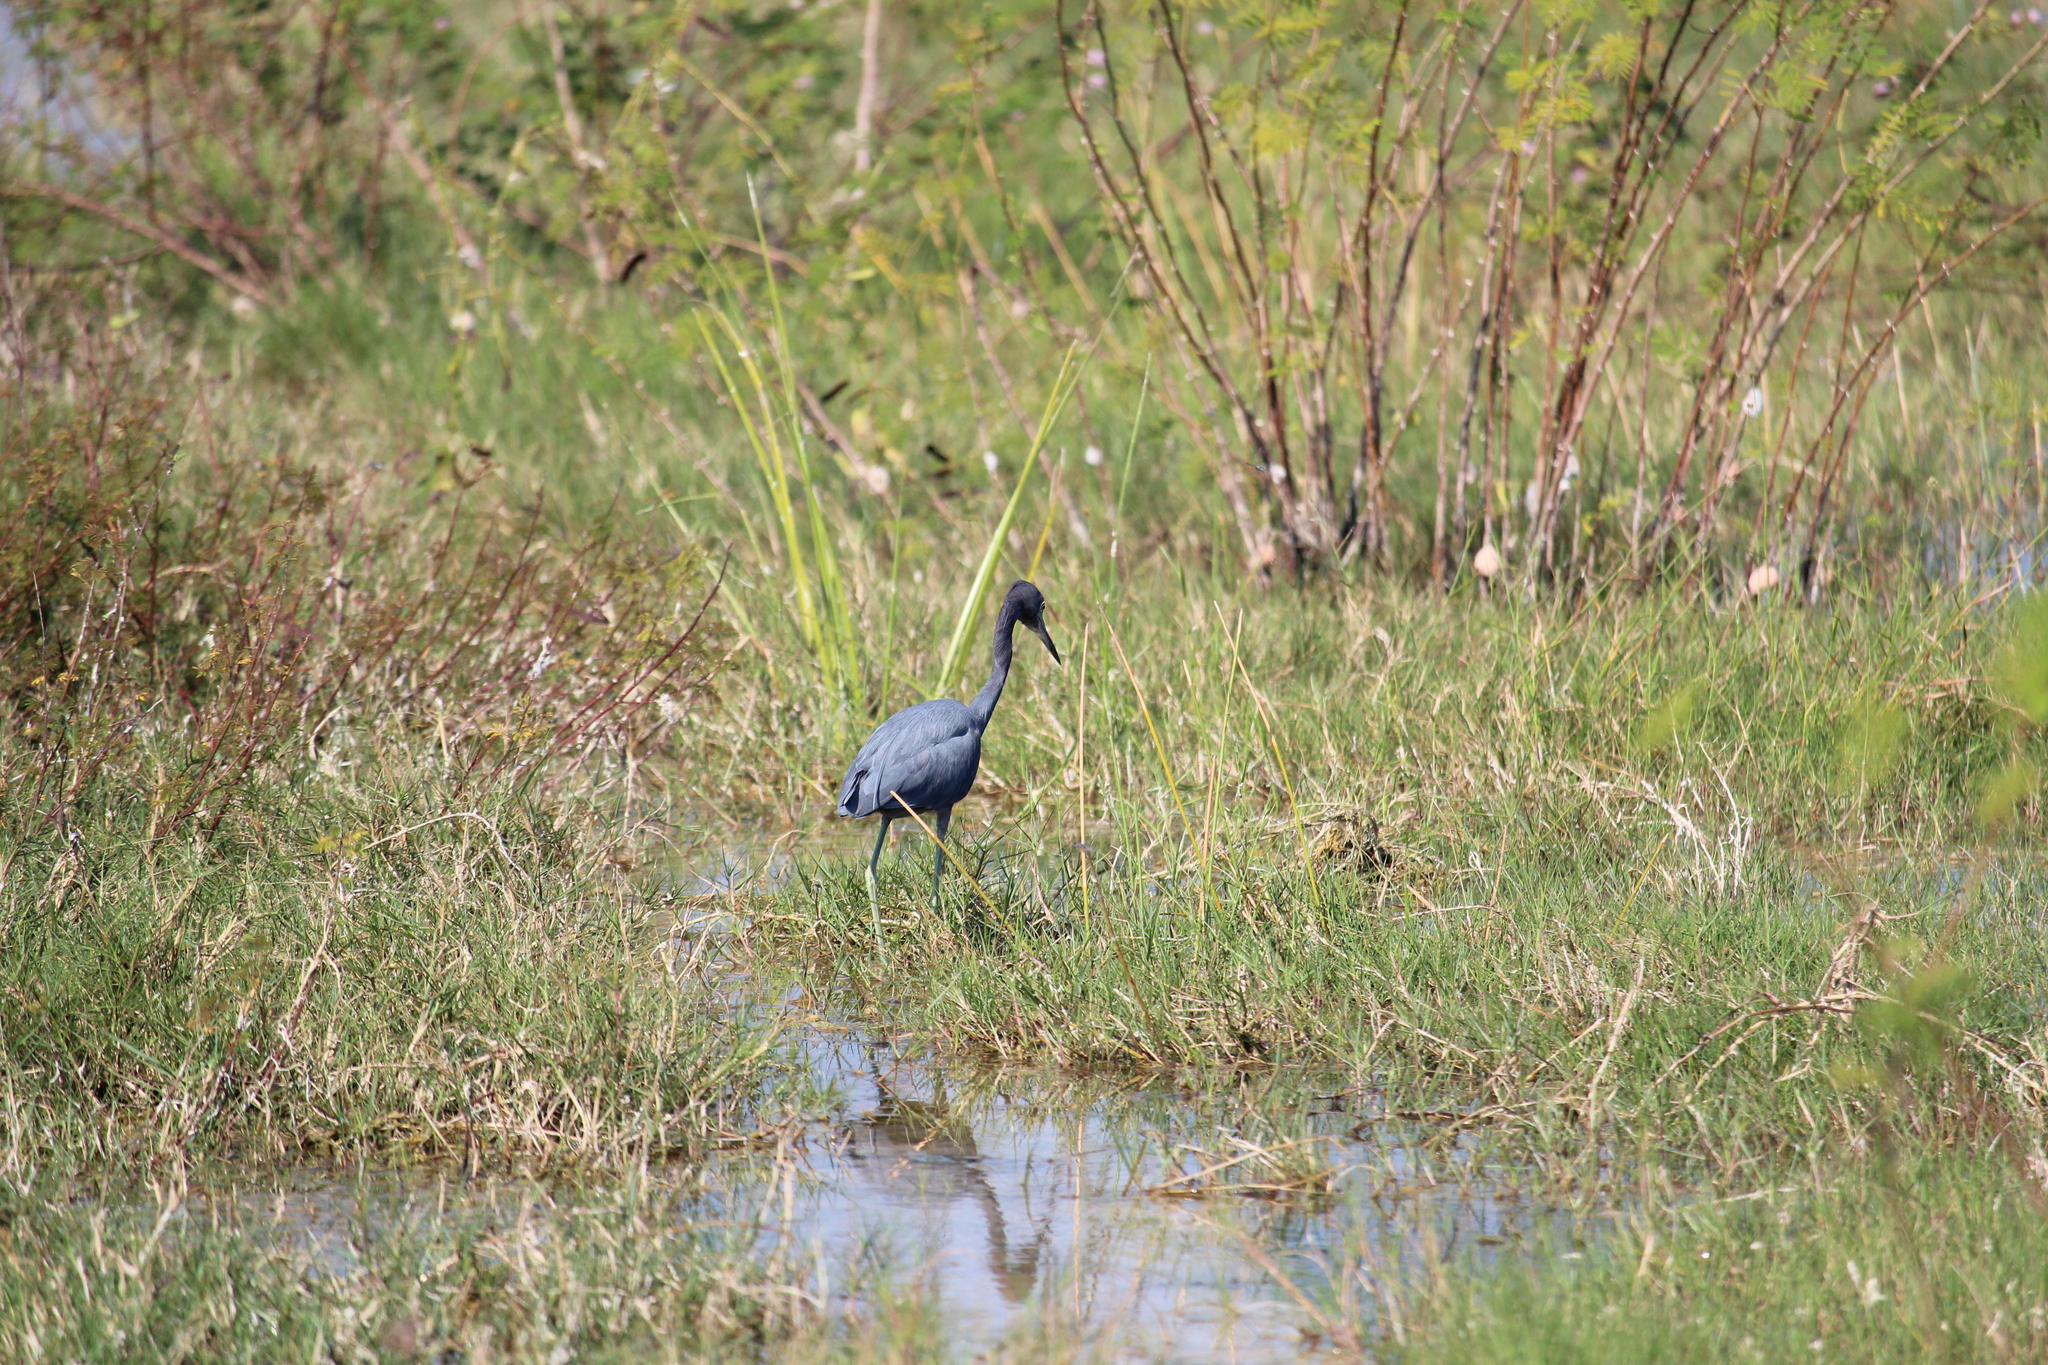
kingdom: Animalia
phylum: Chordata
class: Aves
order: Pelecaniformes
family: Ardeidae
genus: Egretta
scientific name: Egretta caerulea
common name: Little blue heron
